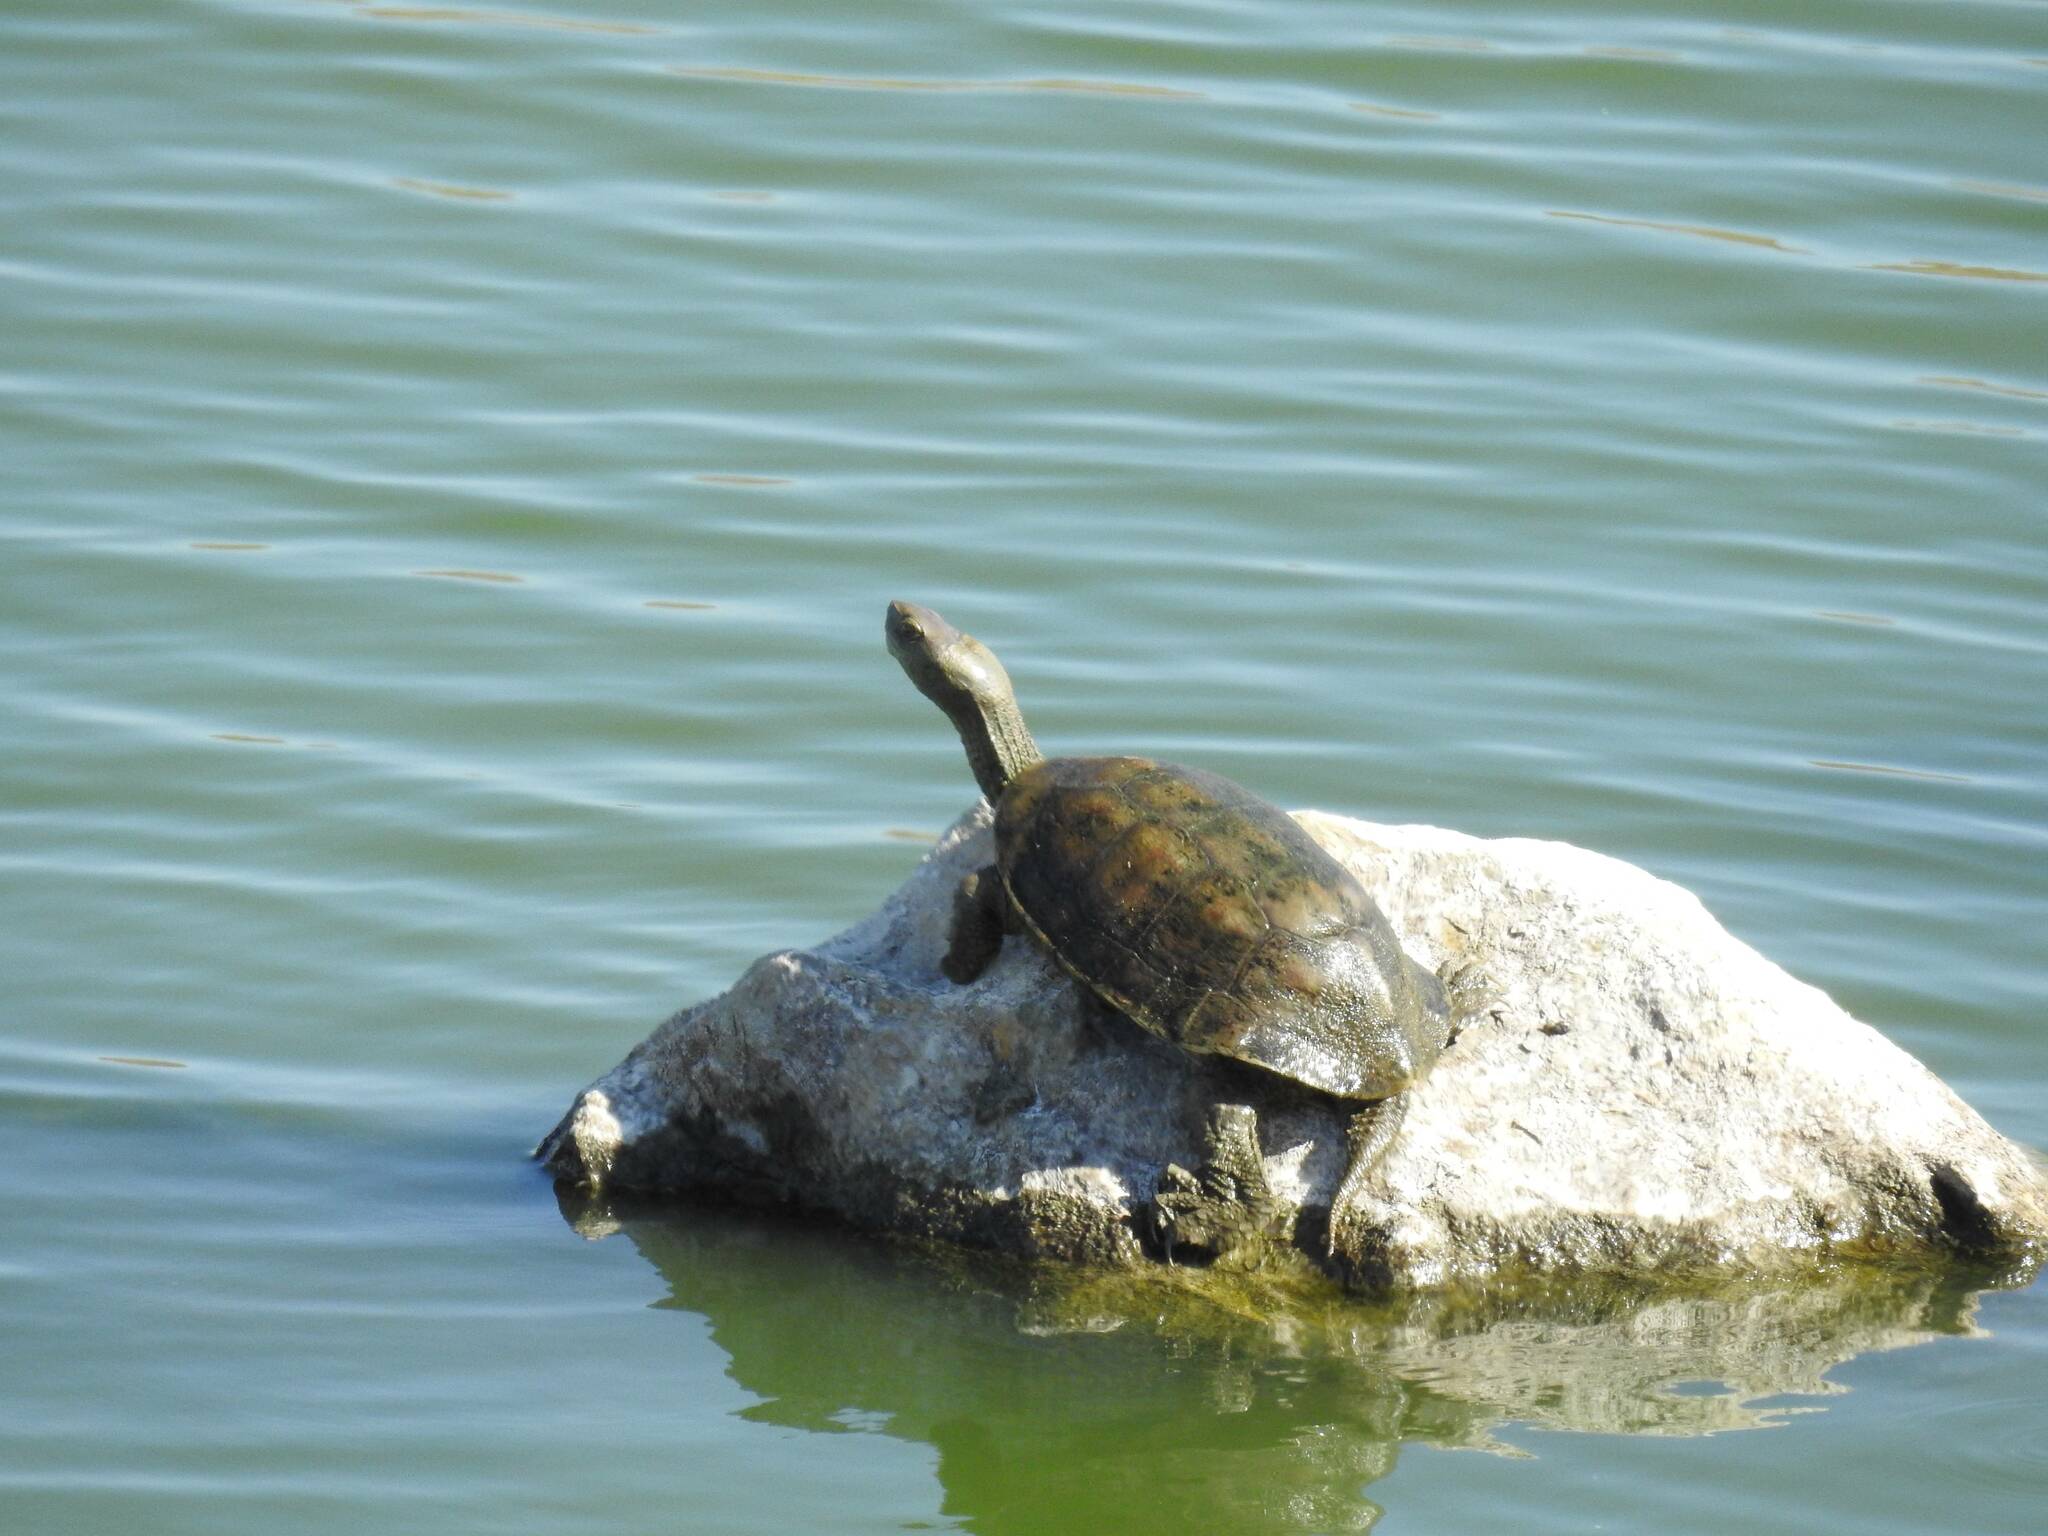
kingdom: Animalia
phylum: Chordata
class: Testudines
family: Geoemydidae
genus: Mauremys
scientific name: Mauremys leprosa
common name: Mediterranean pond turtle
